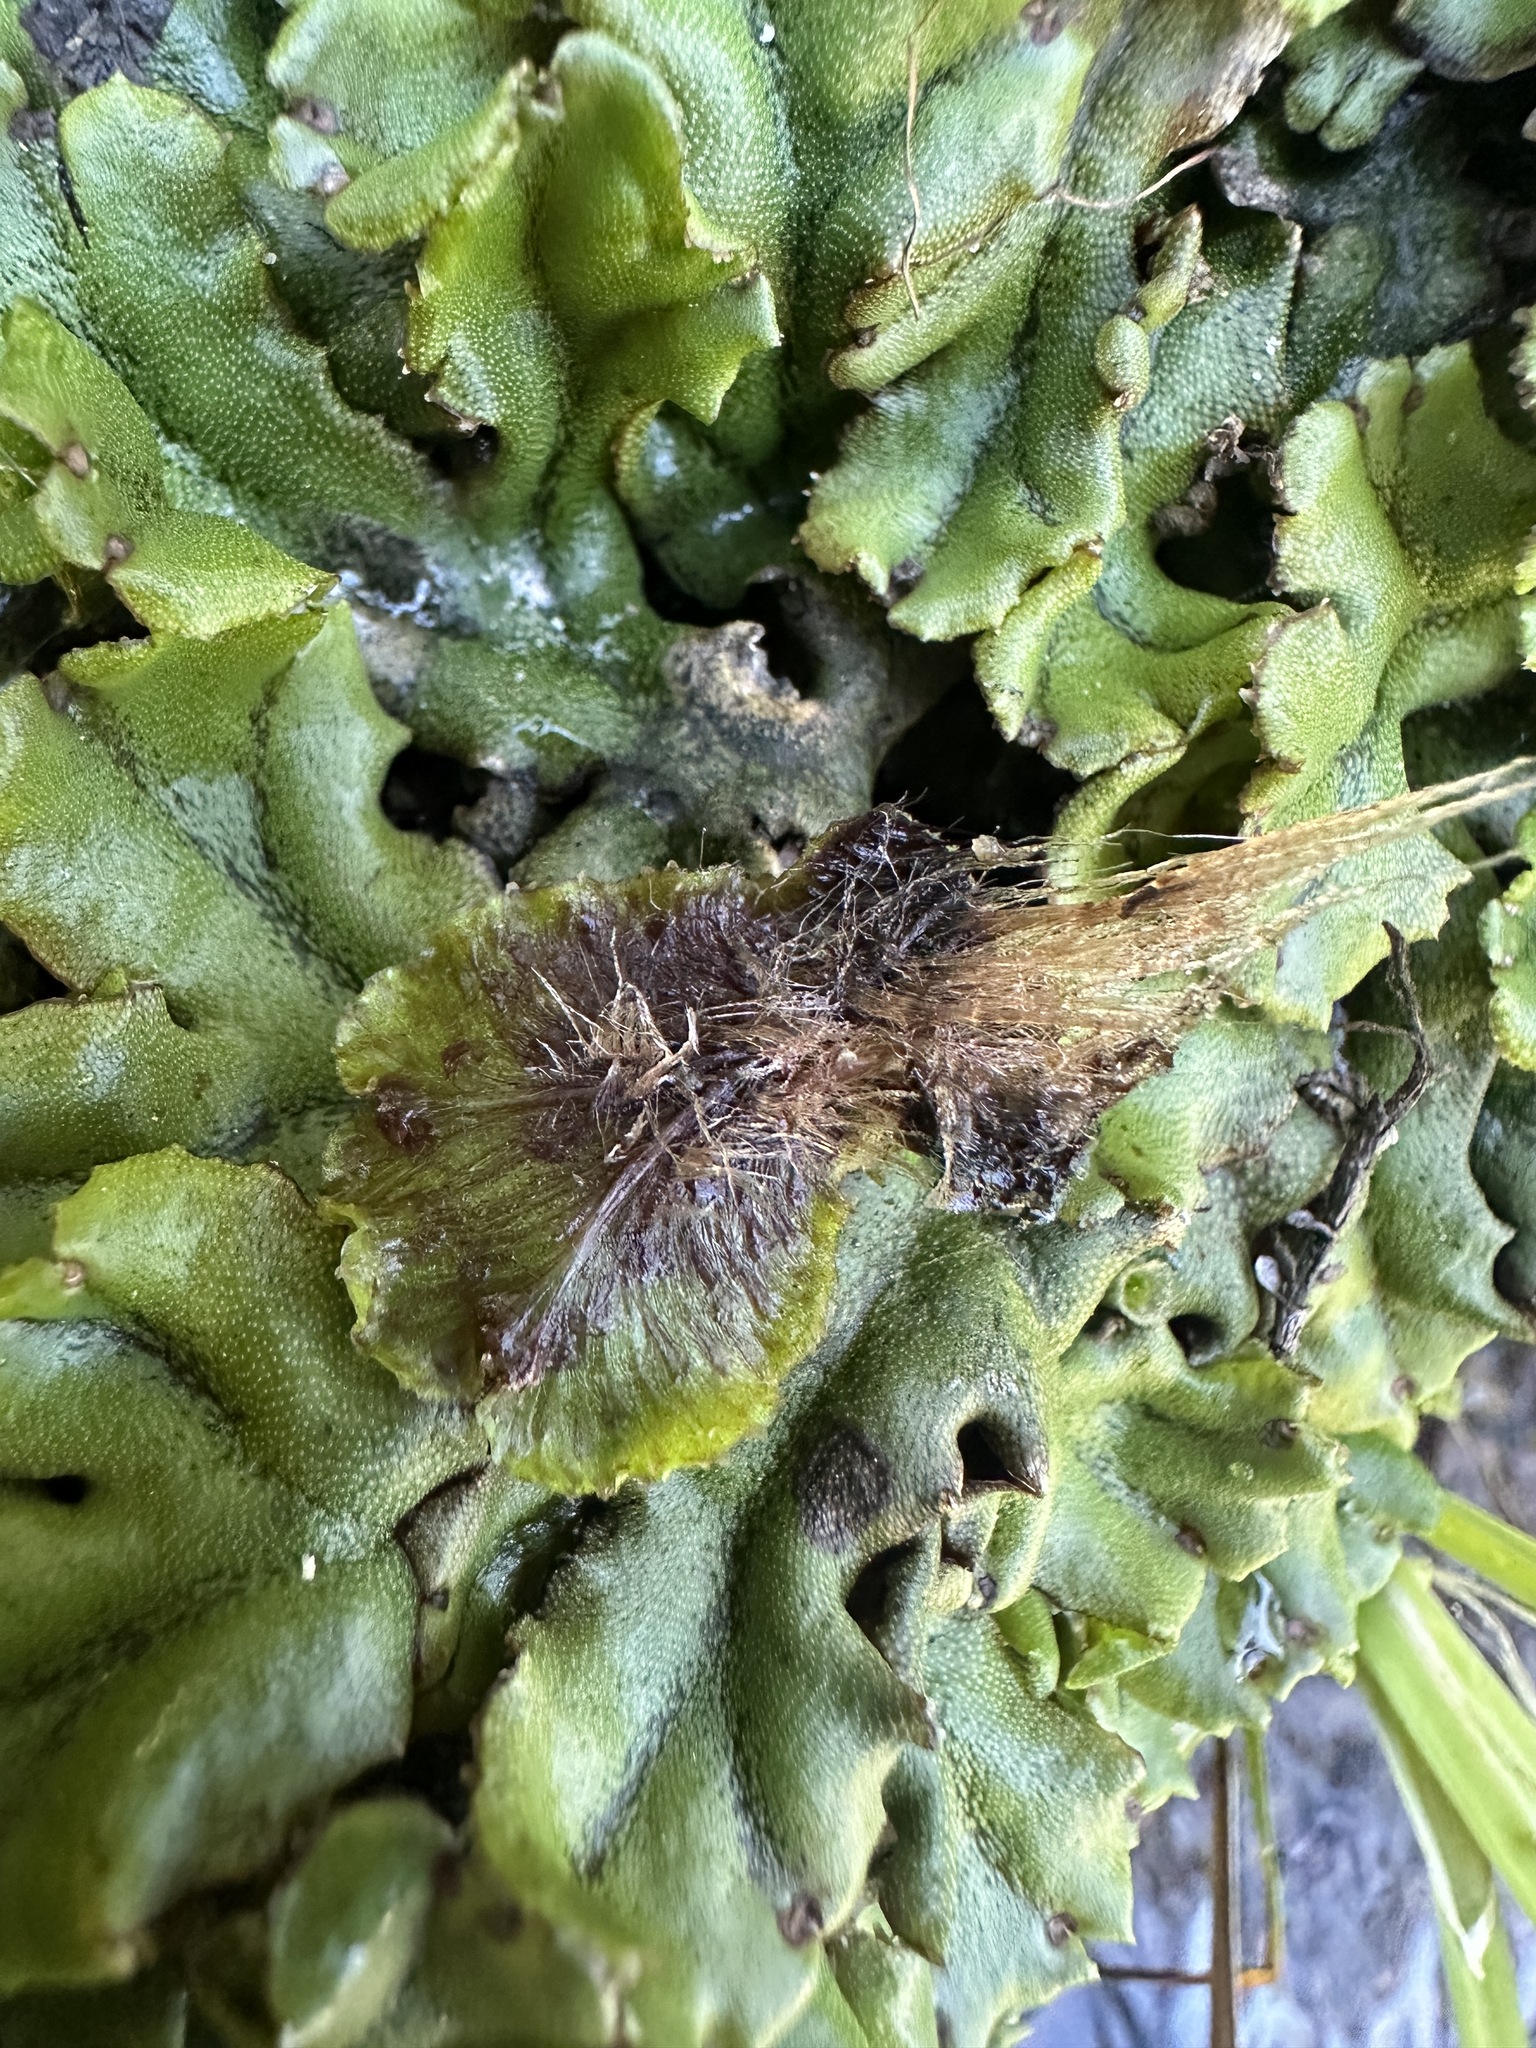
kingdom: Plantae
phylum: Marchantiophyta
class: Marchantiopsida
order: Marchantiales
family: Marchantiaceae
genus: Marchantia
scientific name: Marchantia polymorpha
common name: Common liverwort
